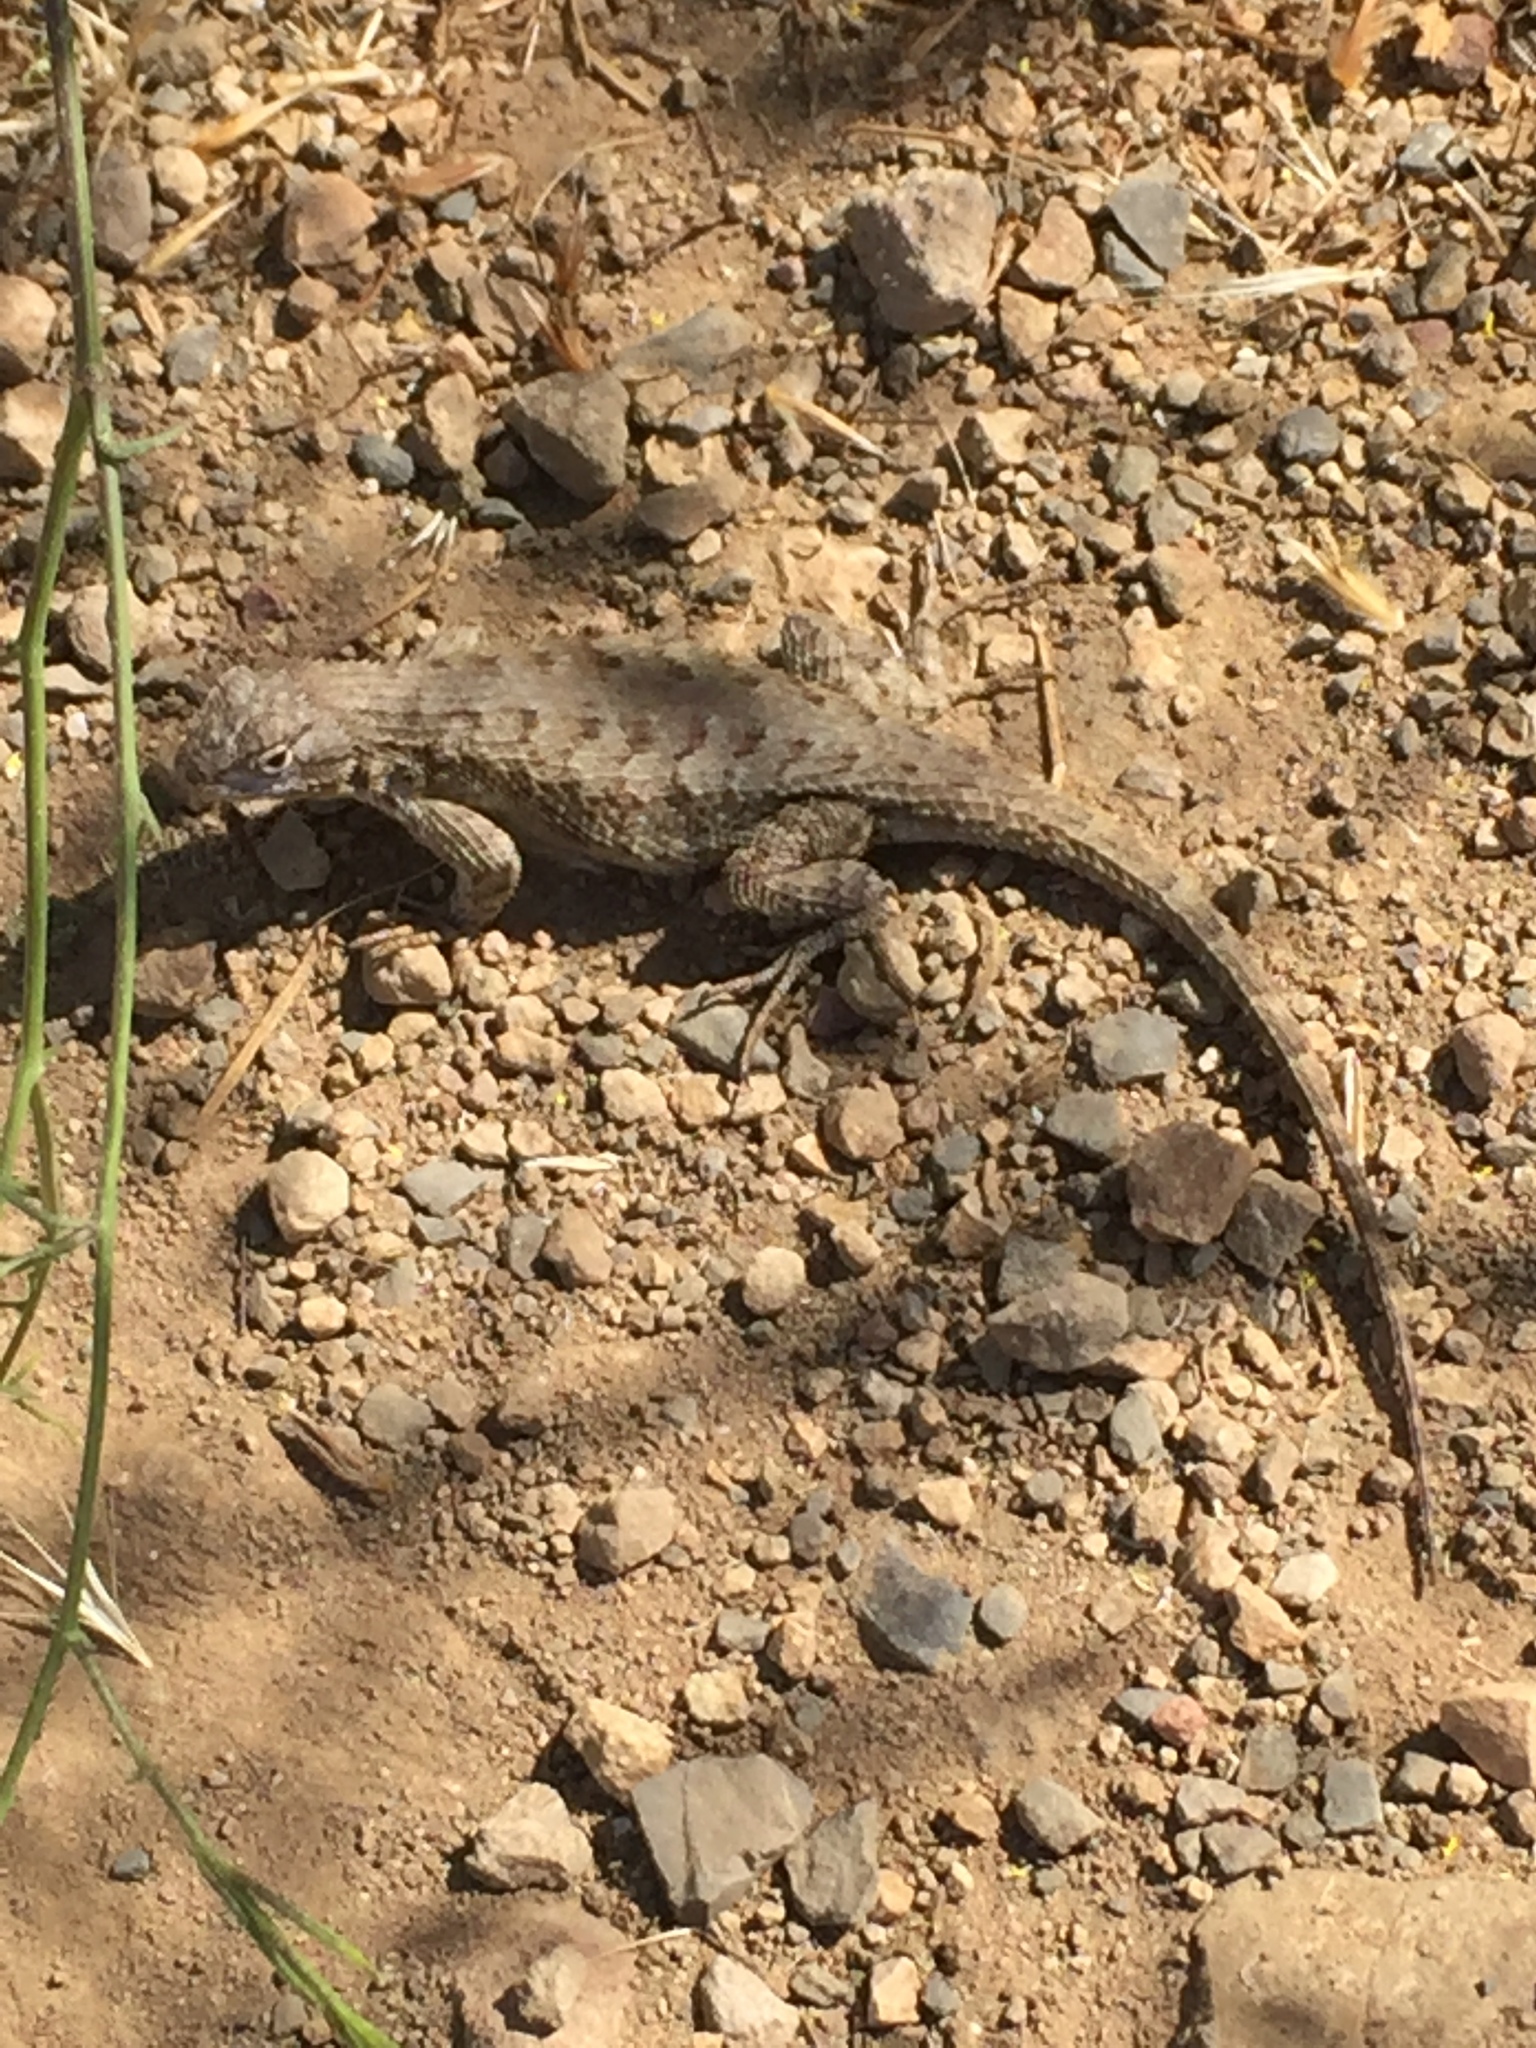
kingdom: Animalia
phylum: Chordata
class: Squamata
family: Phrynosomatidae
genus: Sceloporus
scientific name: Sceloporus occidentalis
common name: Western fence lizard
